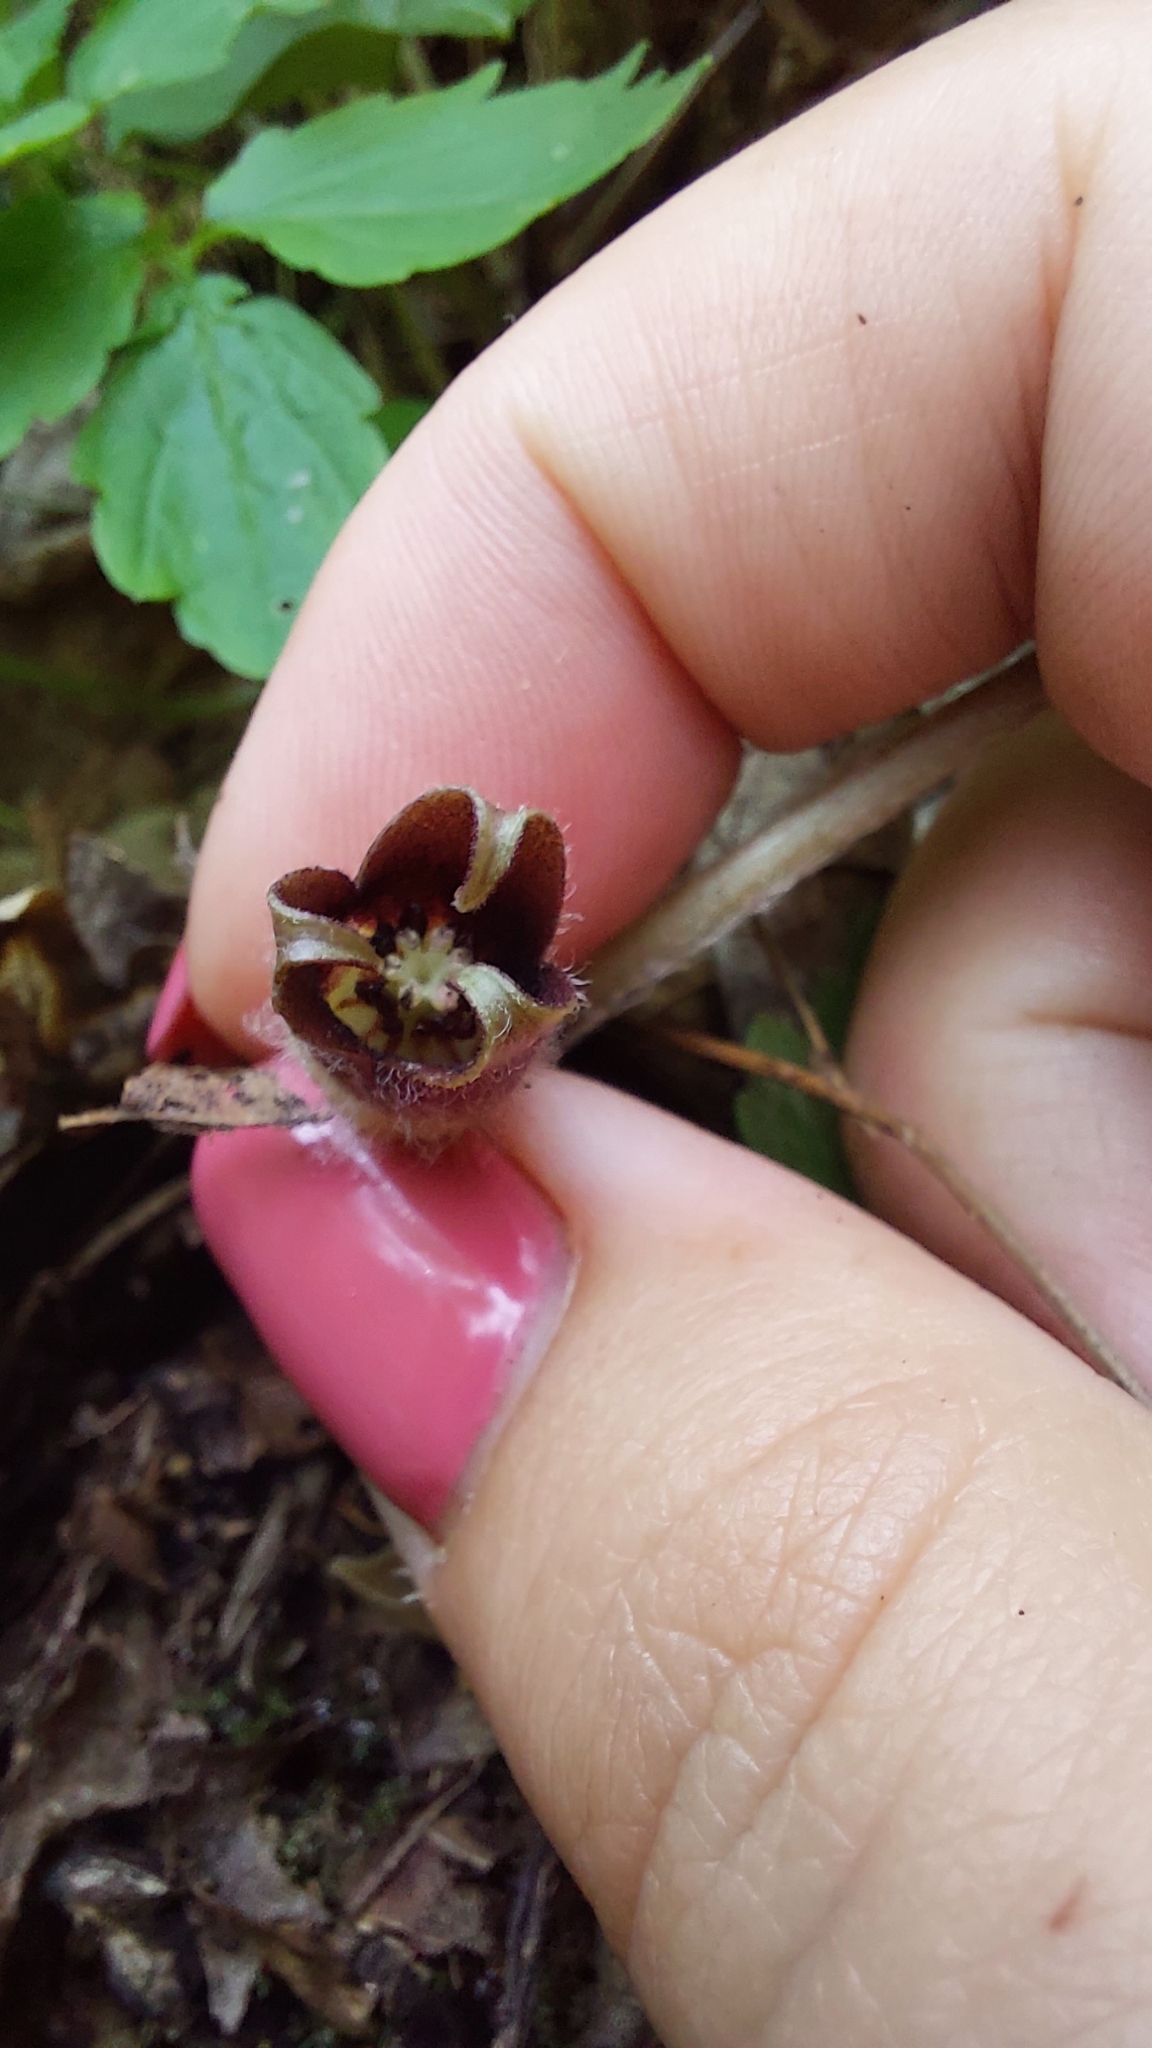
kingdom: Plantae
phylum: Tracheophyta
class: Magnoliopsida
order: Piperales
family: Aristolochiaceae
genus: Asarum
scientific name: Asarum europaeum
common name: Asarabacca
